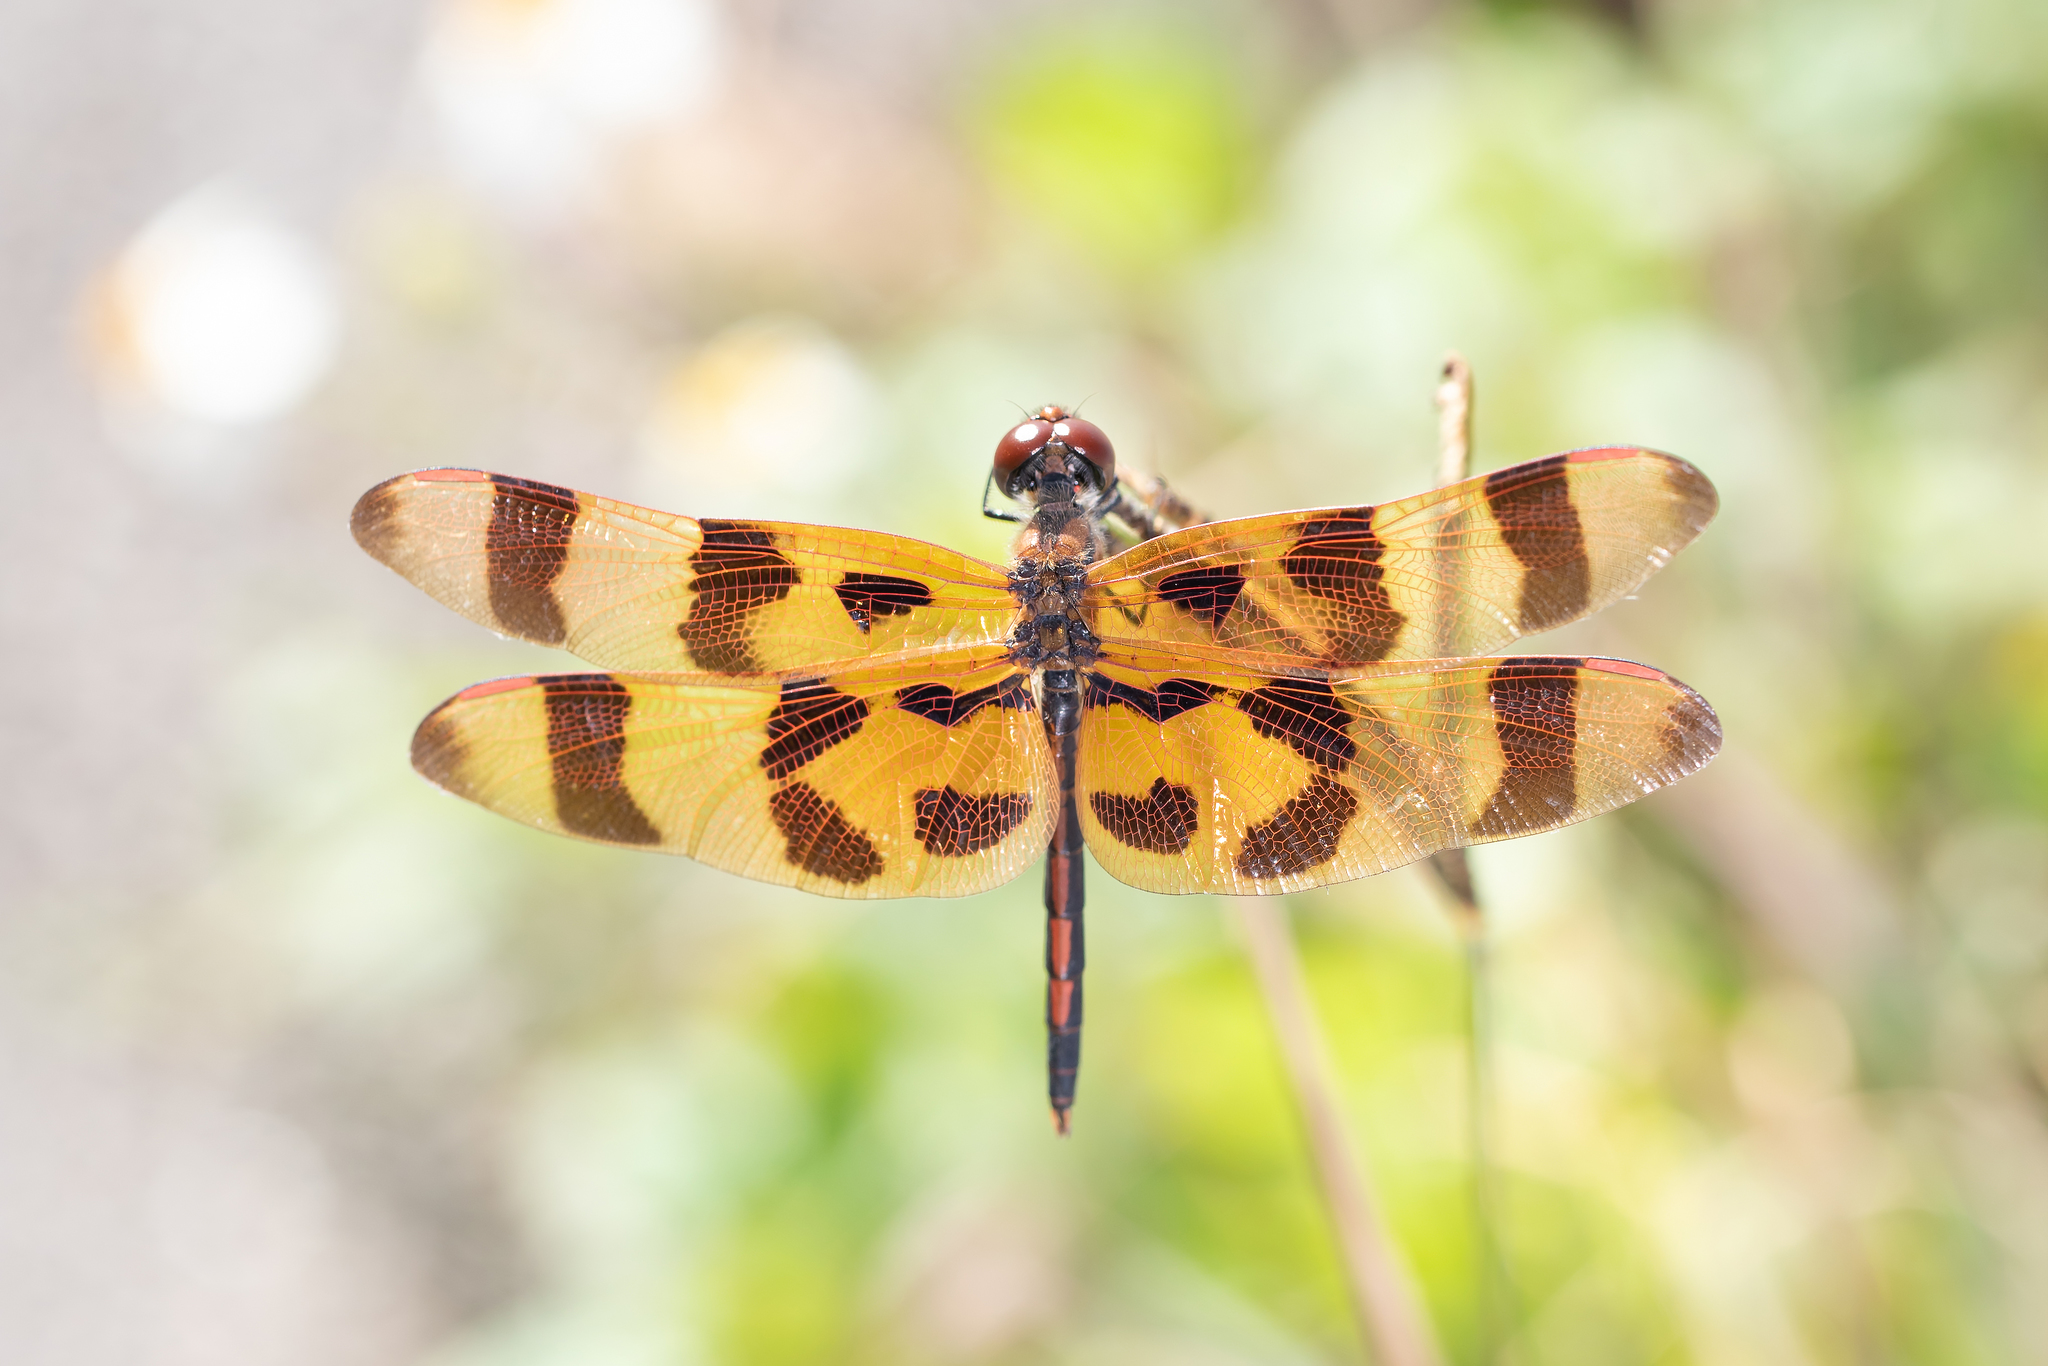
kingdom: Animalia
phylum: Arthropoda
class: Insecta
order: Odonata
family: Libellulidae
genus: Celithemis
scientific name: Celithemis eponina
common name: Halloween pennant
